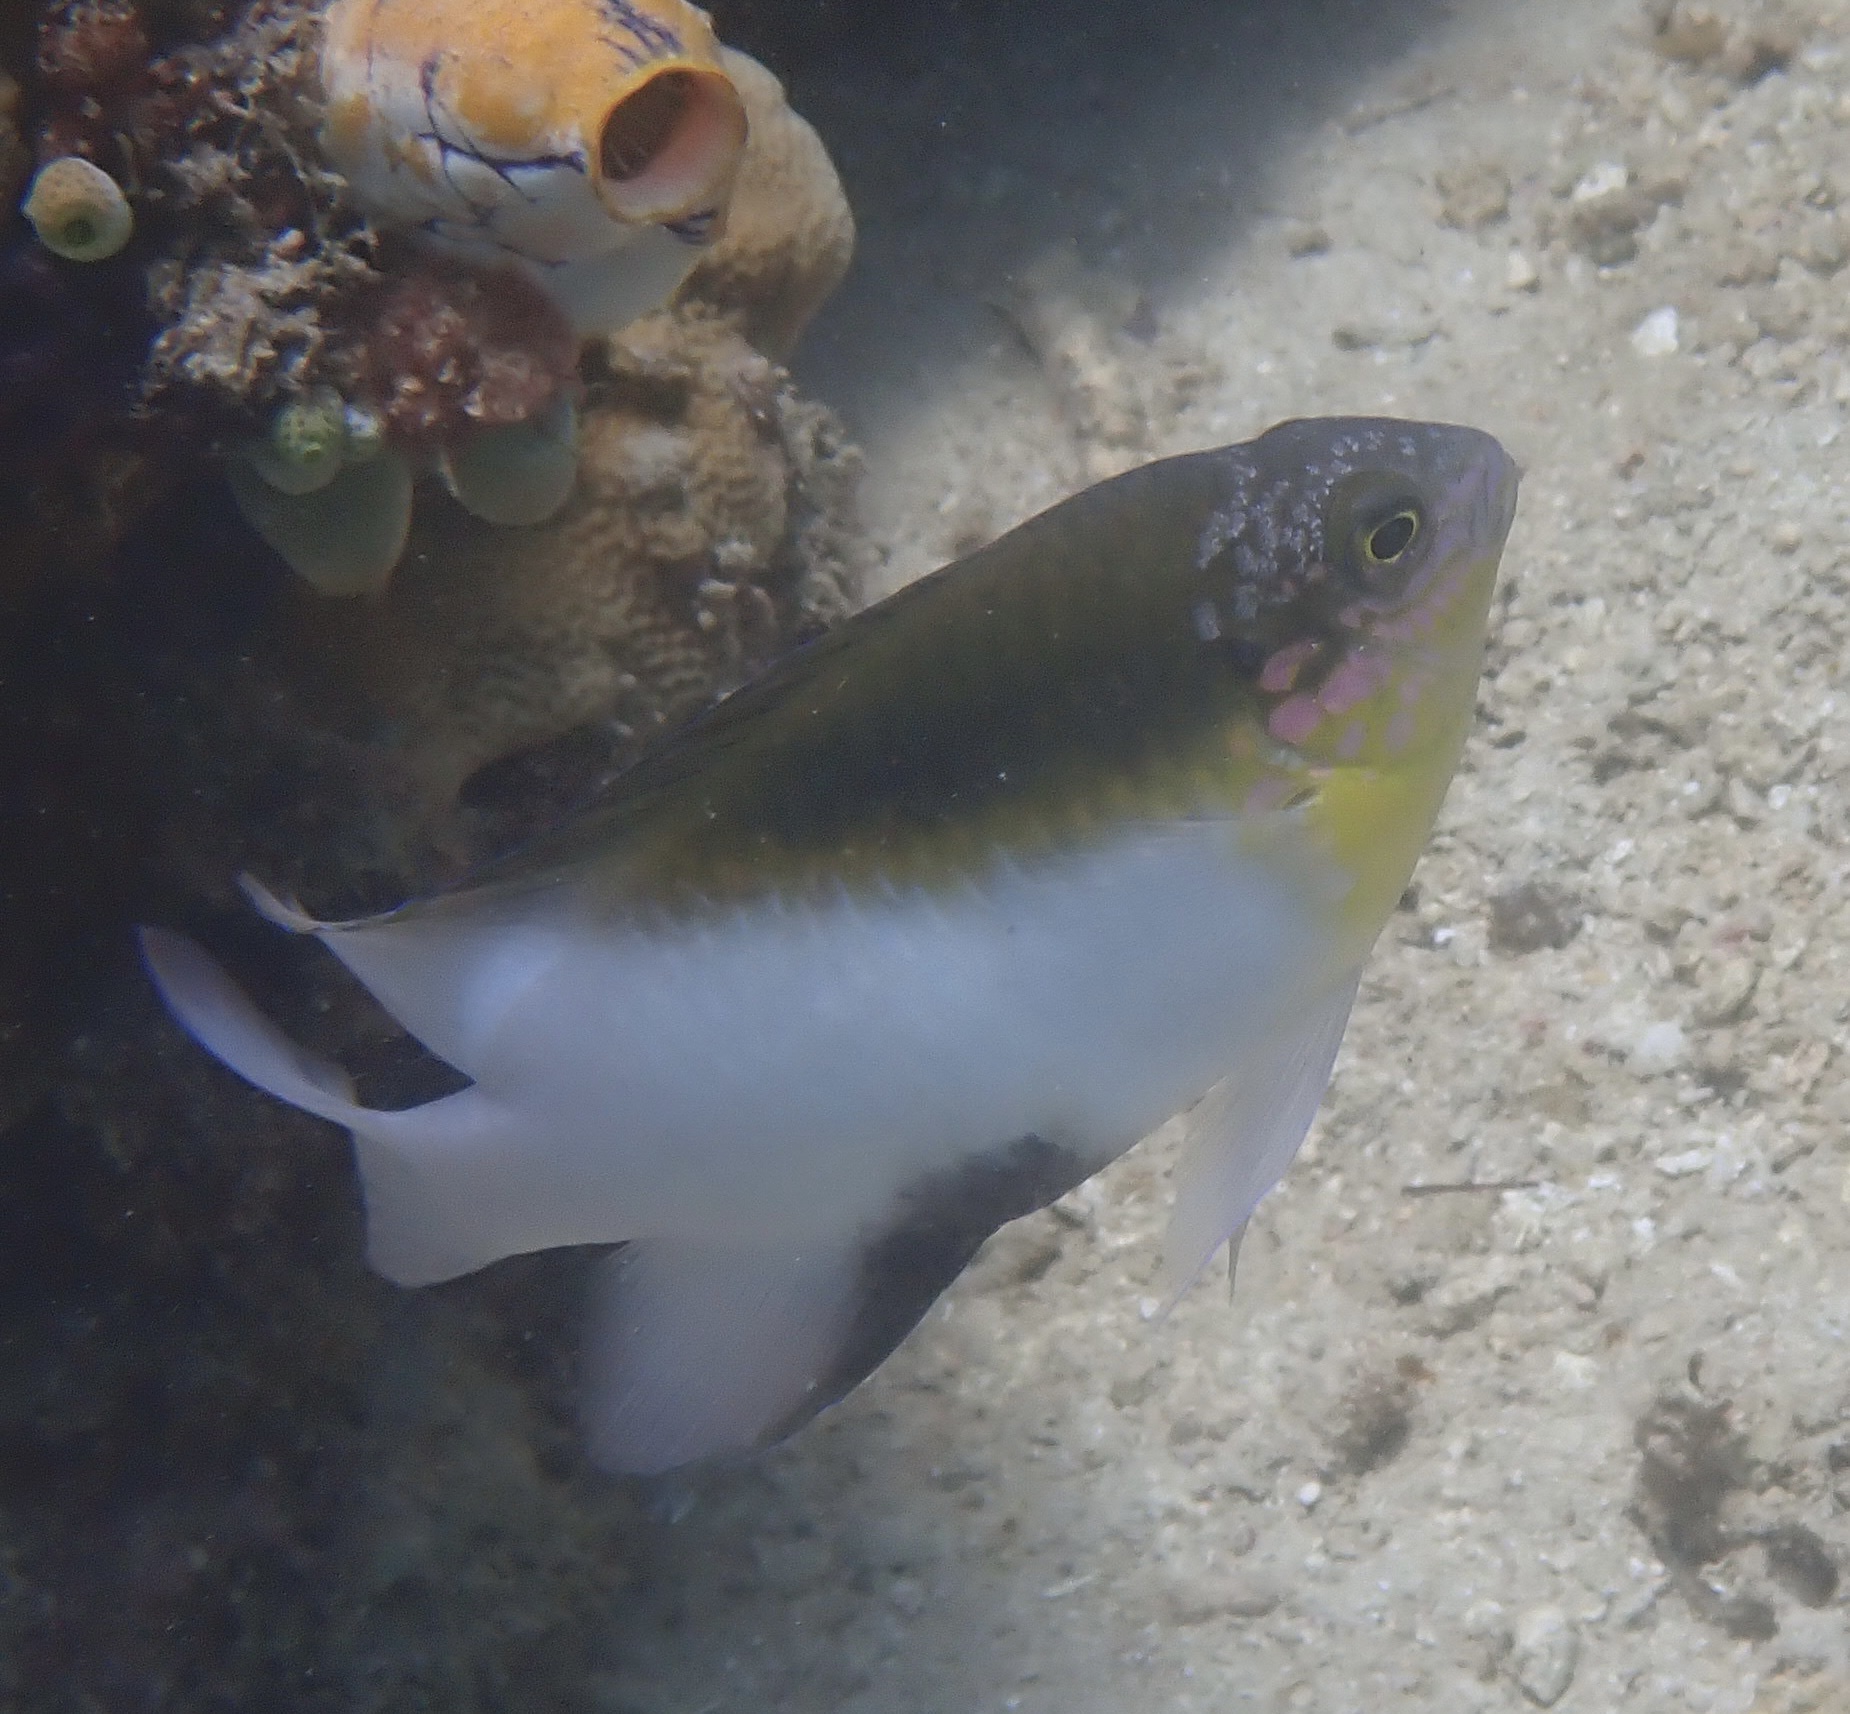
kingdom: Animalia
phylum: Chordata
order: Perciformes
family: Pomacentridae
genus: Dischistodus
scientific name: Dischistodus melanotus
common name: Black-vent damsel
